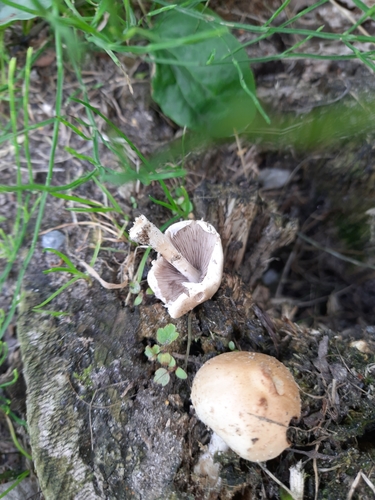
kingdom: Fungi
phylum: Basidiomycota
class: Agaricomycetes
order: Agaricales
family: Psathyrellaceae
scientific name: Psathyrellaceae
